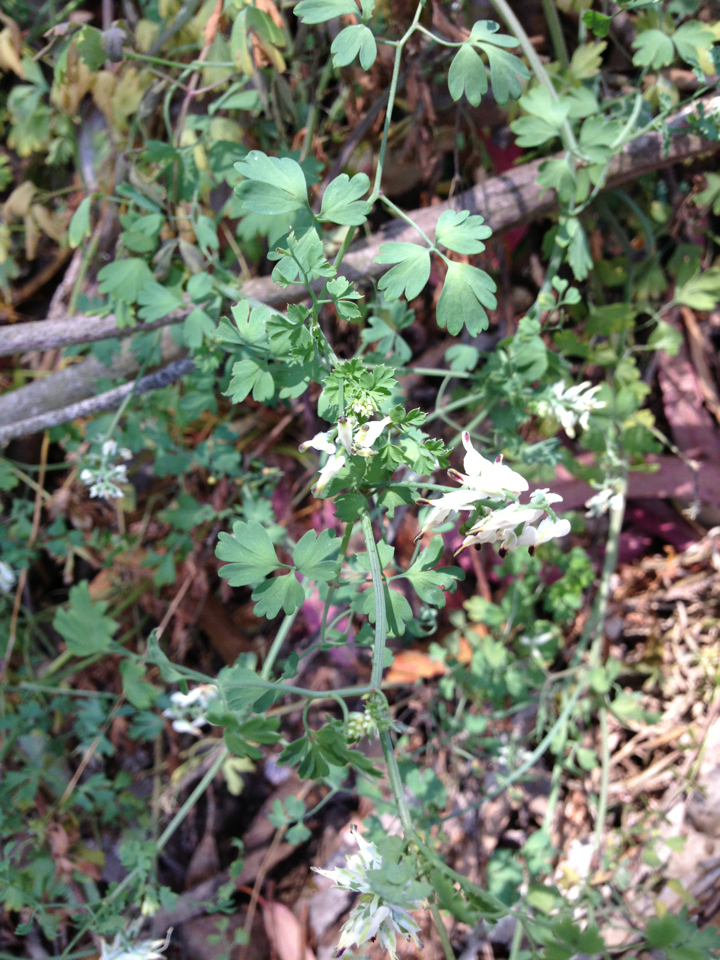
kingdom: Plantae
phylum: Tracheophyta
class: Magnoliopsida
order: Ranunculales
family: Papaveraceae
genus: Fumaria
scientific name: Fumaria capreolata
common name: White ramping-fumitory
